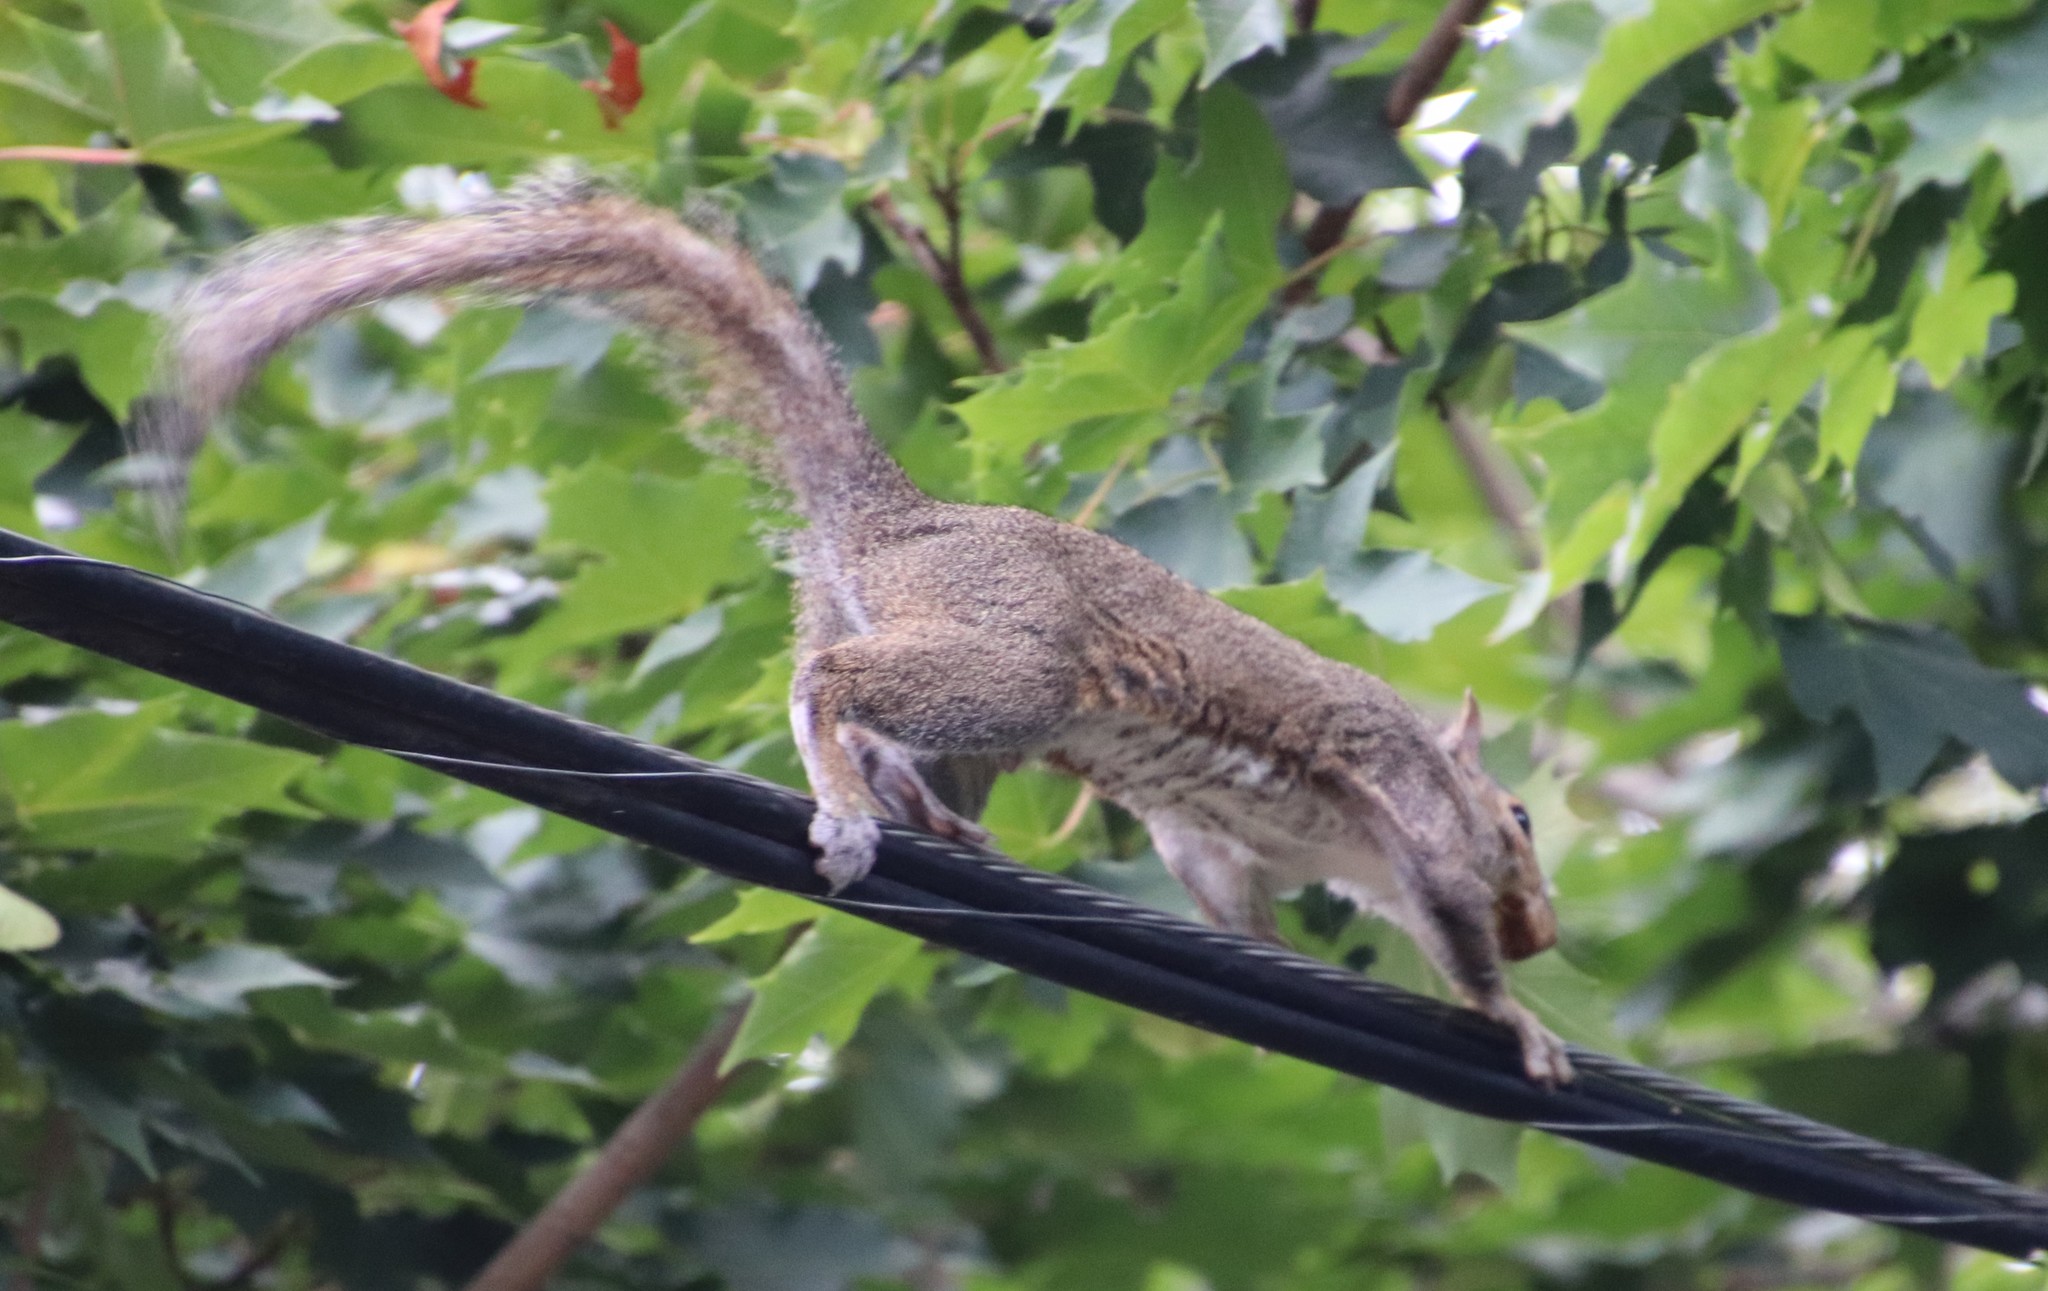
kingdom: Animalia
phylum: Chordata
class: Mammalia
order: Rodentia
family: Sciuridae
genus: Sciurus
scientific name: Sciurus carolinensis
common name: Eastern gray squirrel
